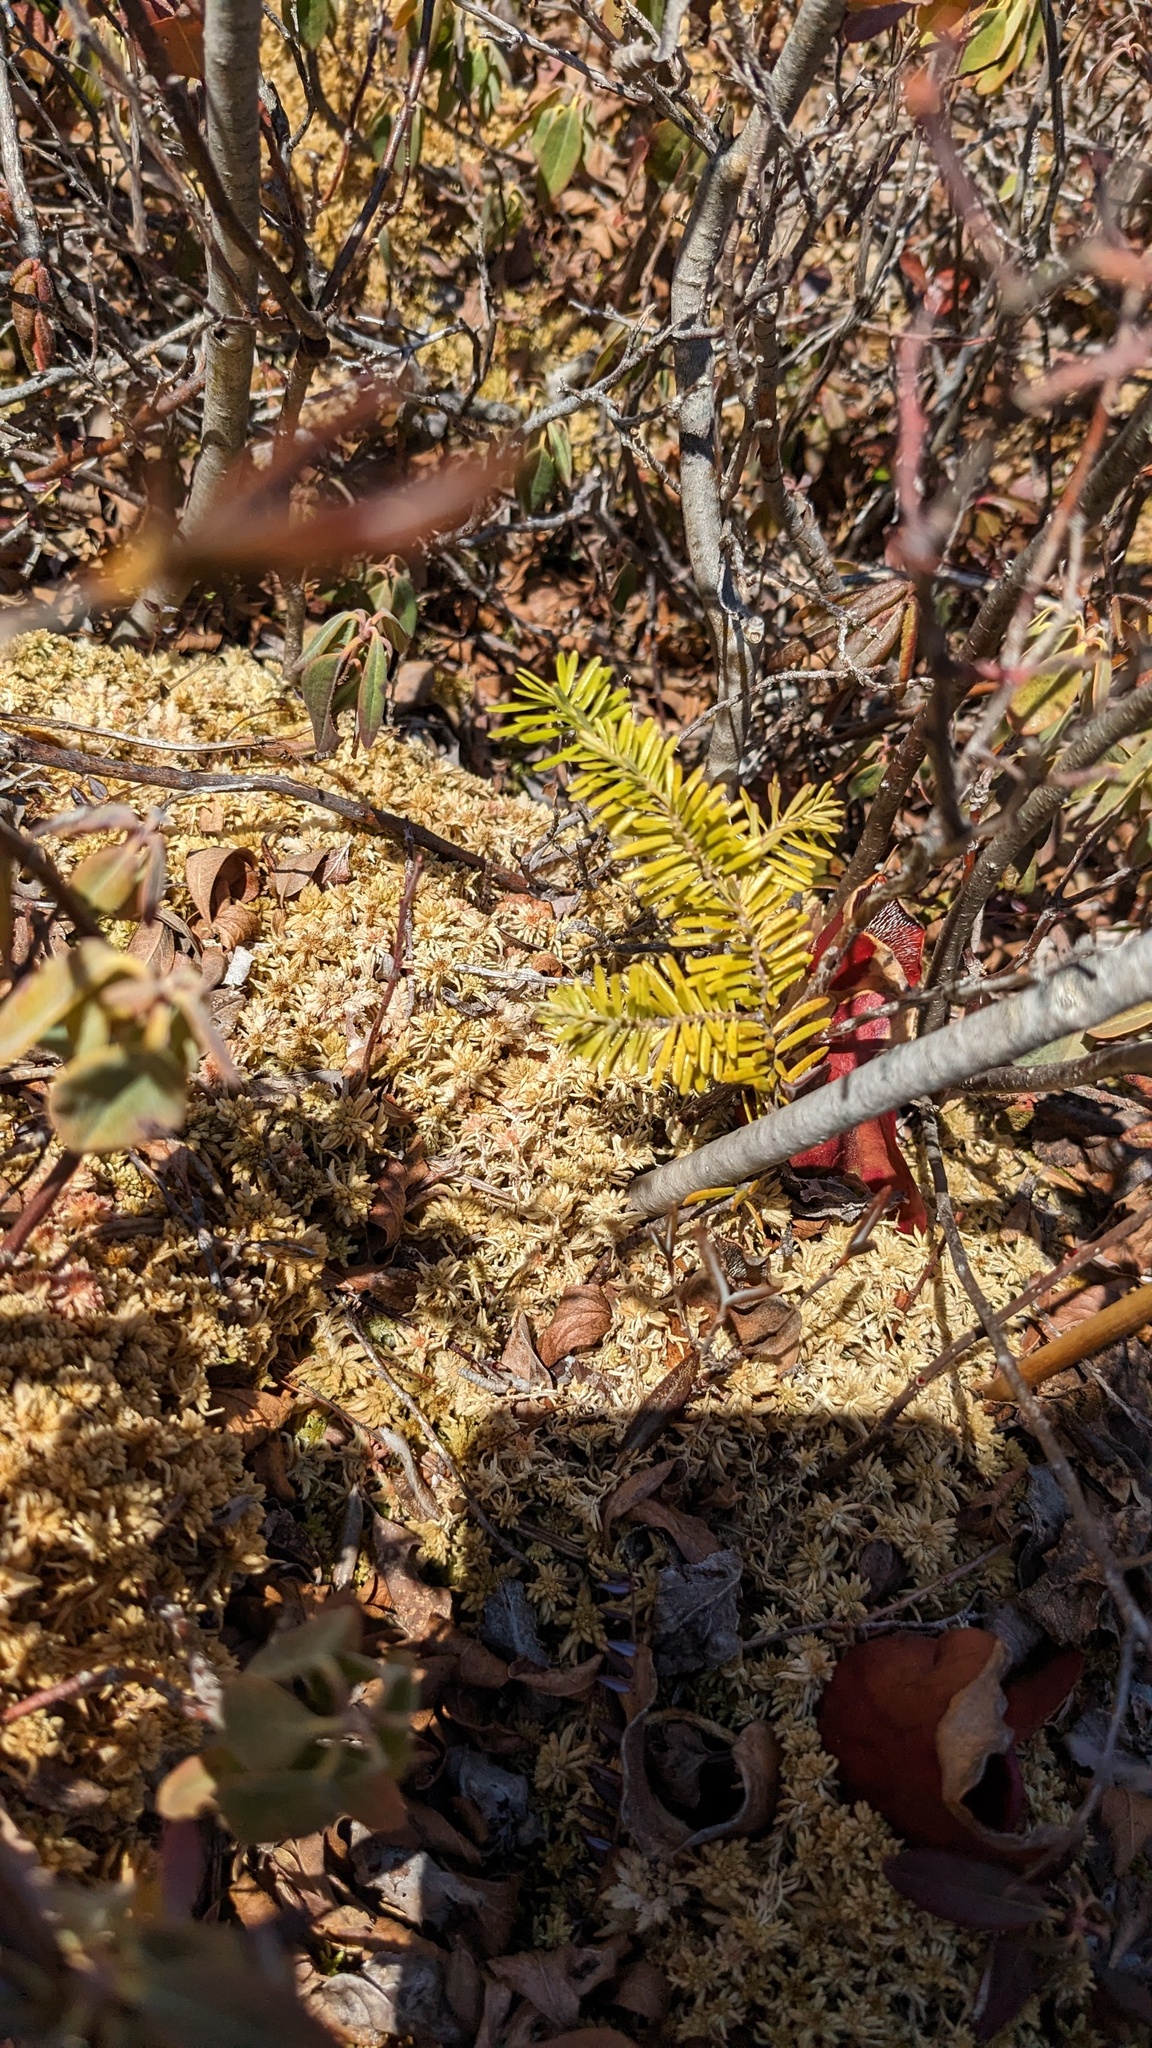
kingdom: Plantae
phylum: Tracheophyta
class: Pinopsida
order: Pinales
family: Pinaceae
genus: Abies
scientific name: Abies balsamea
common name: Balsam fir
